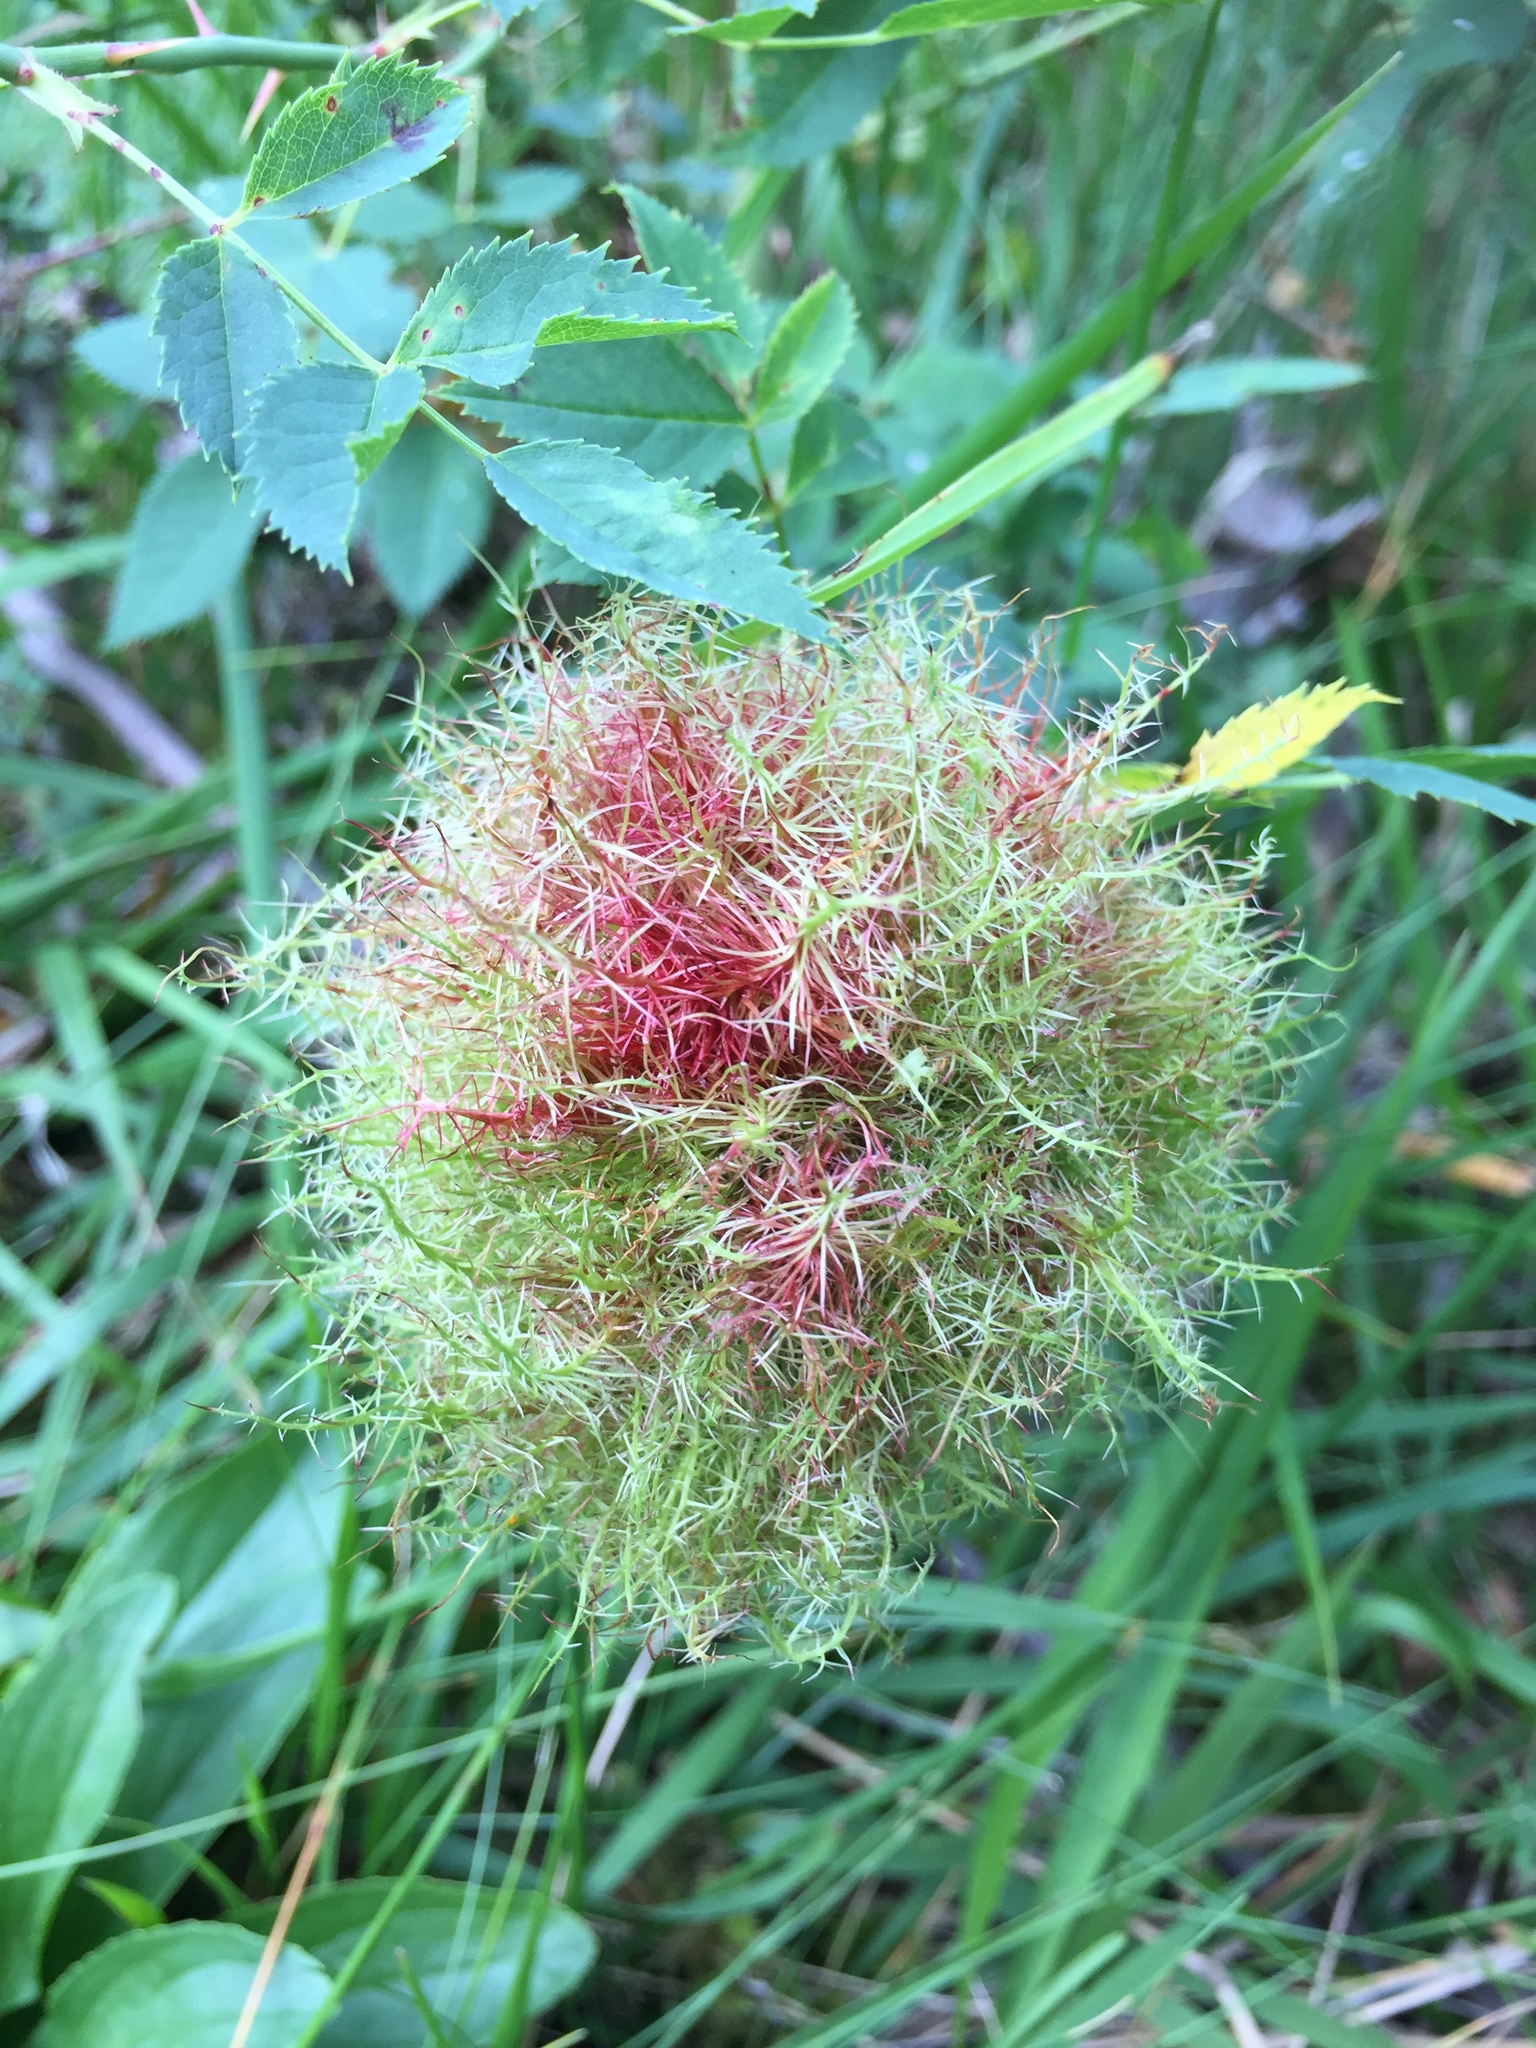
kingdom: Animalia
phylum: Arthropoda
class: Insecta
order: Hymenoptera
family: Cynipidae
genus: Diplolepis
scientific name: Diplolepis rosae
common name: Bedeguar gall
